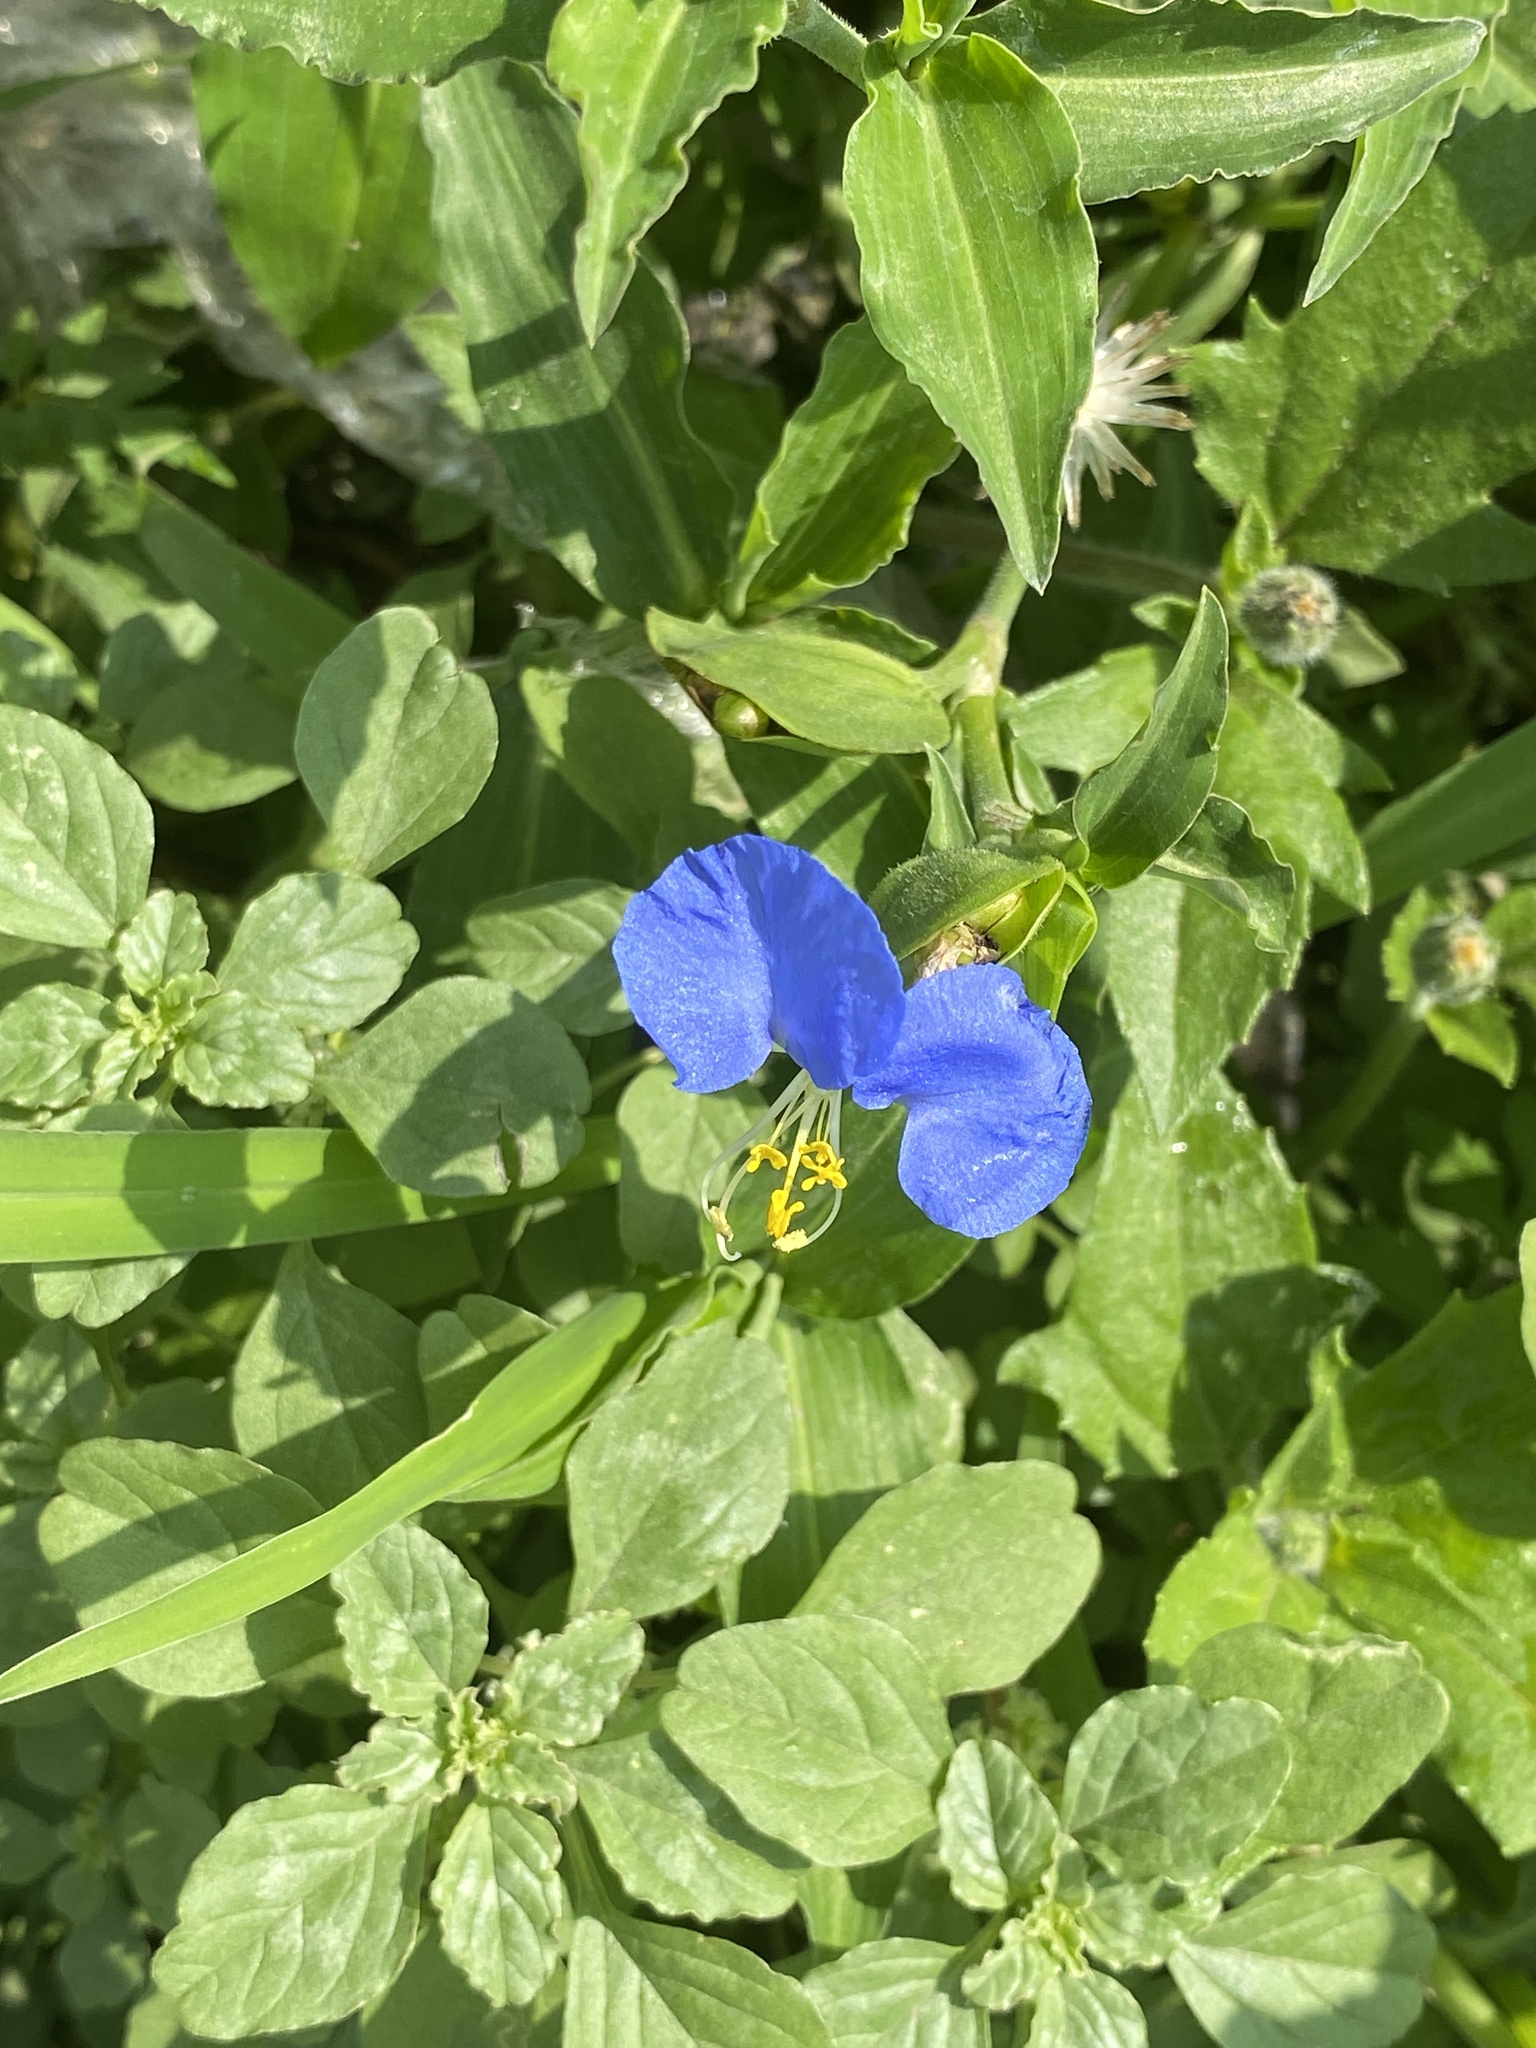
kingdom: Plantae
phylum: Tracheophyta
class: Liliopsida
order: Commelinales
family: Commelinaceae
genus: Commelina
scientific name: Commelina erecta
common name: Blousel blommetjie
